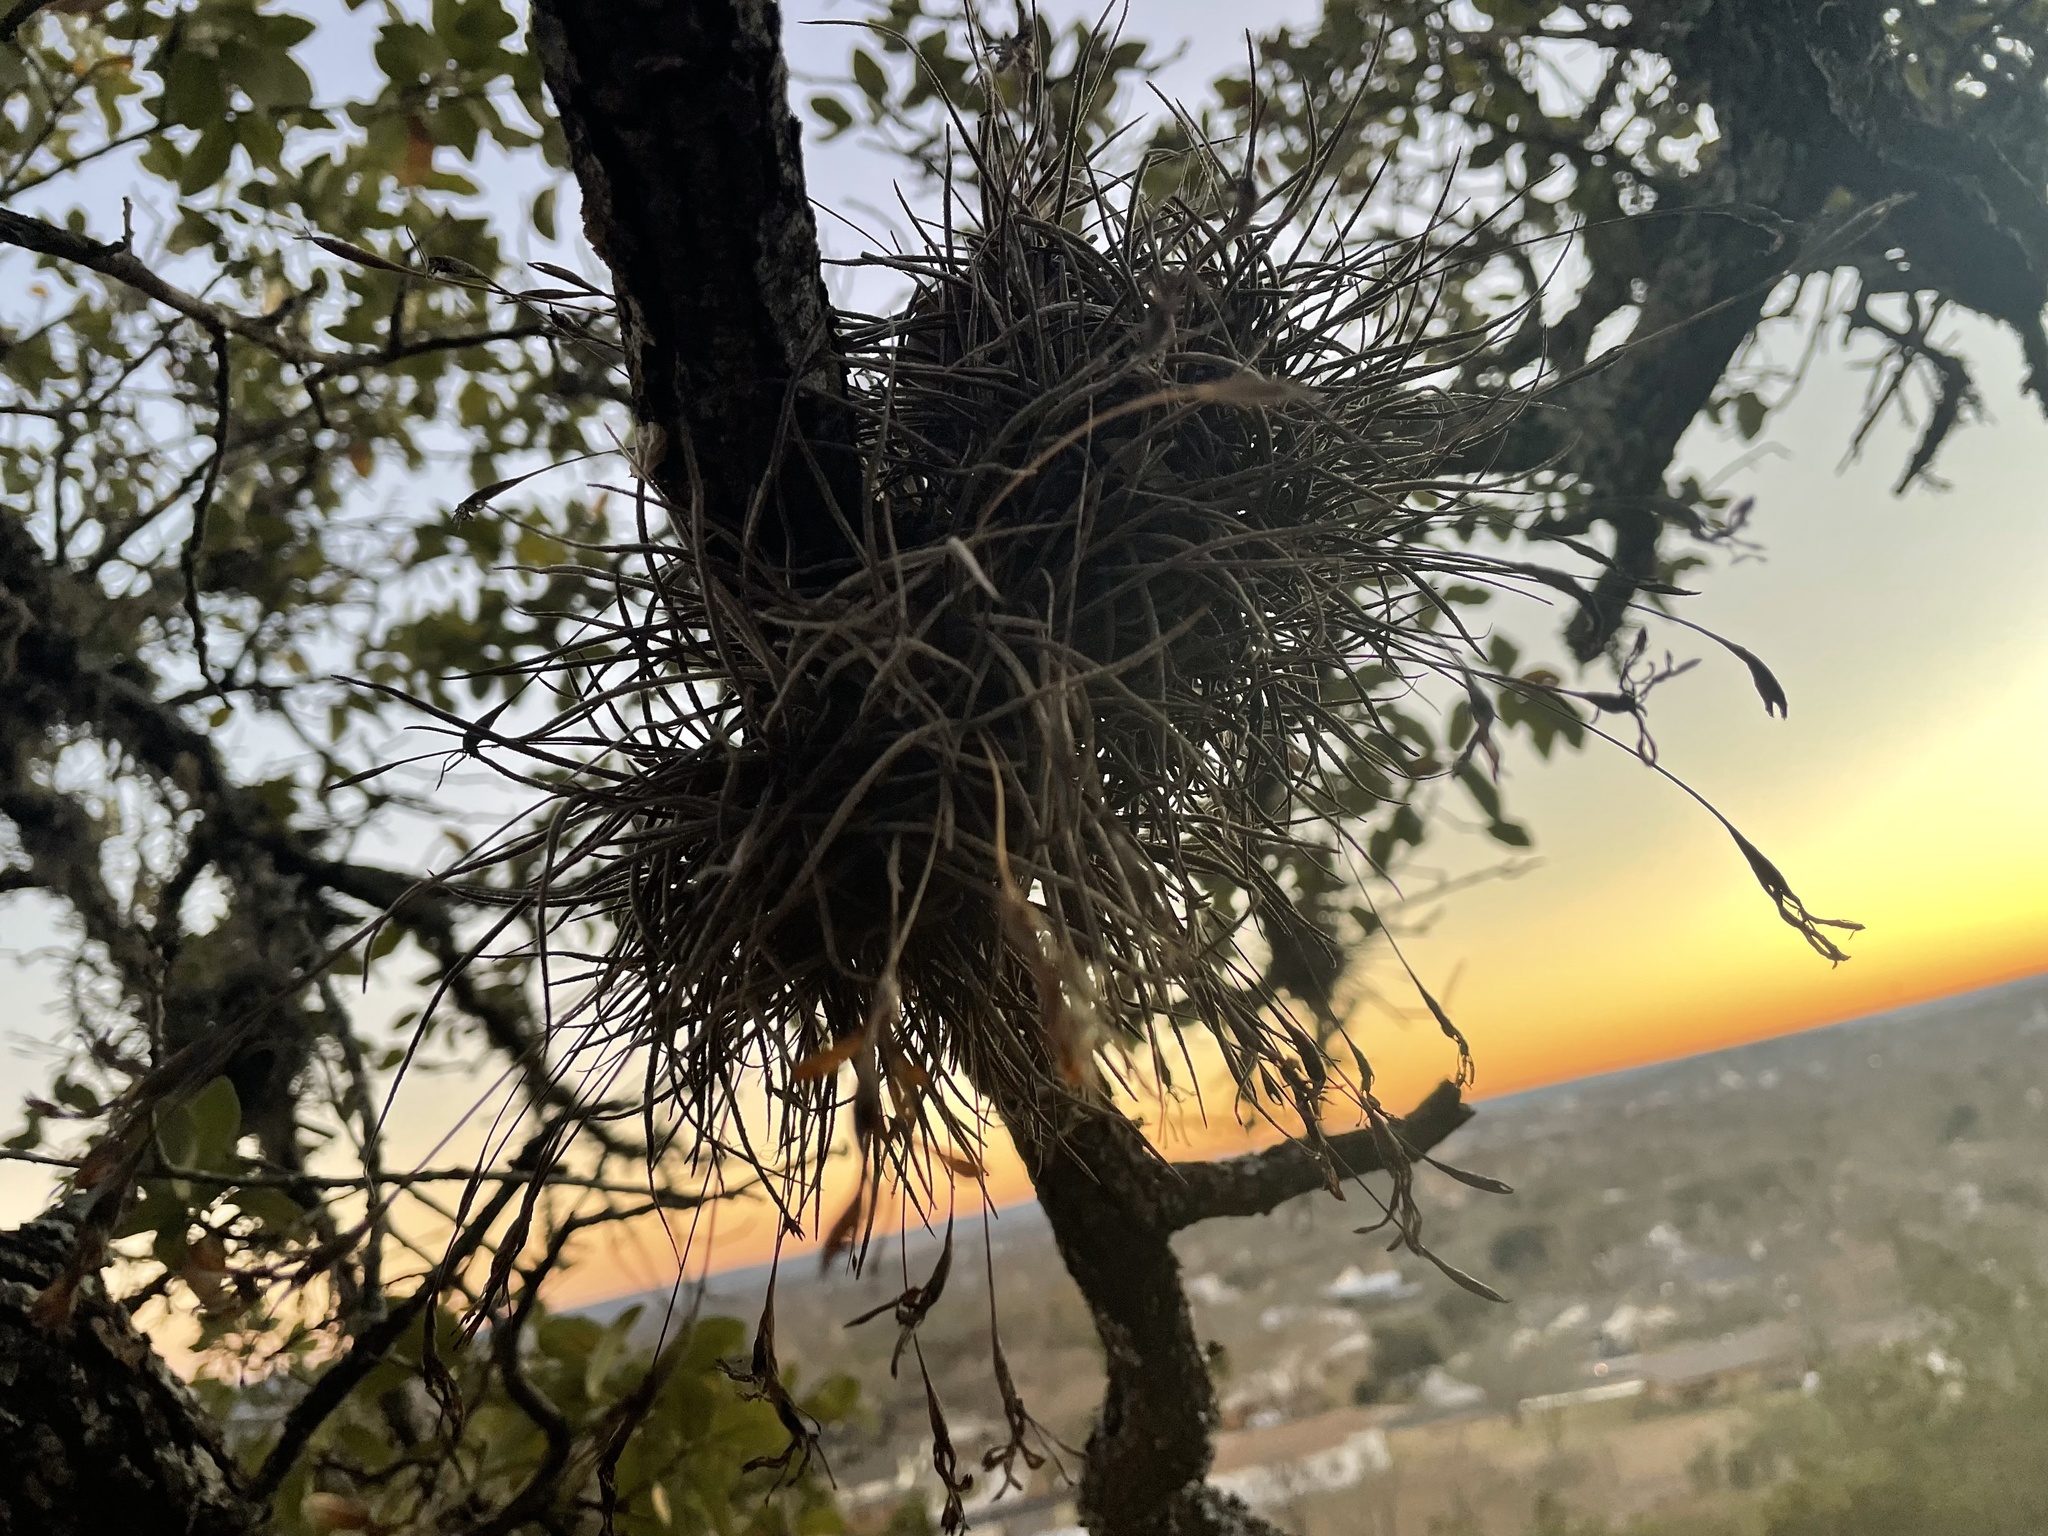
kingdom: Plantae
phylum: Tracheophyta
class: Liliopsida
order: Poales
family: Bromeliaceae
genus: Tillandsia
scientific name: Tillandsia recurvata
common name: Small ballmoss
